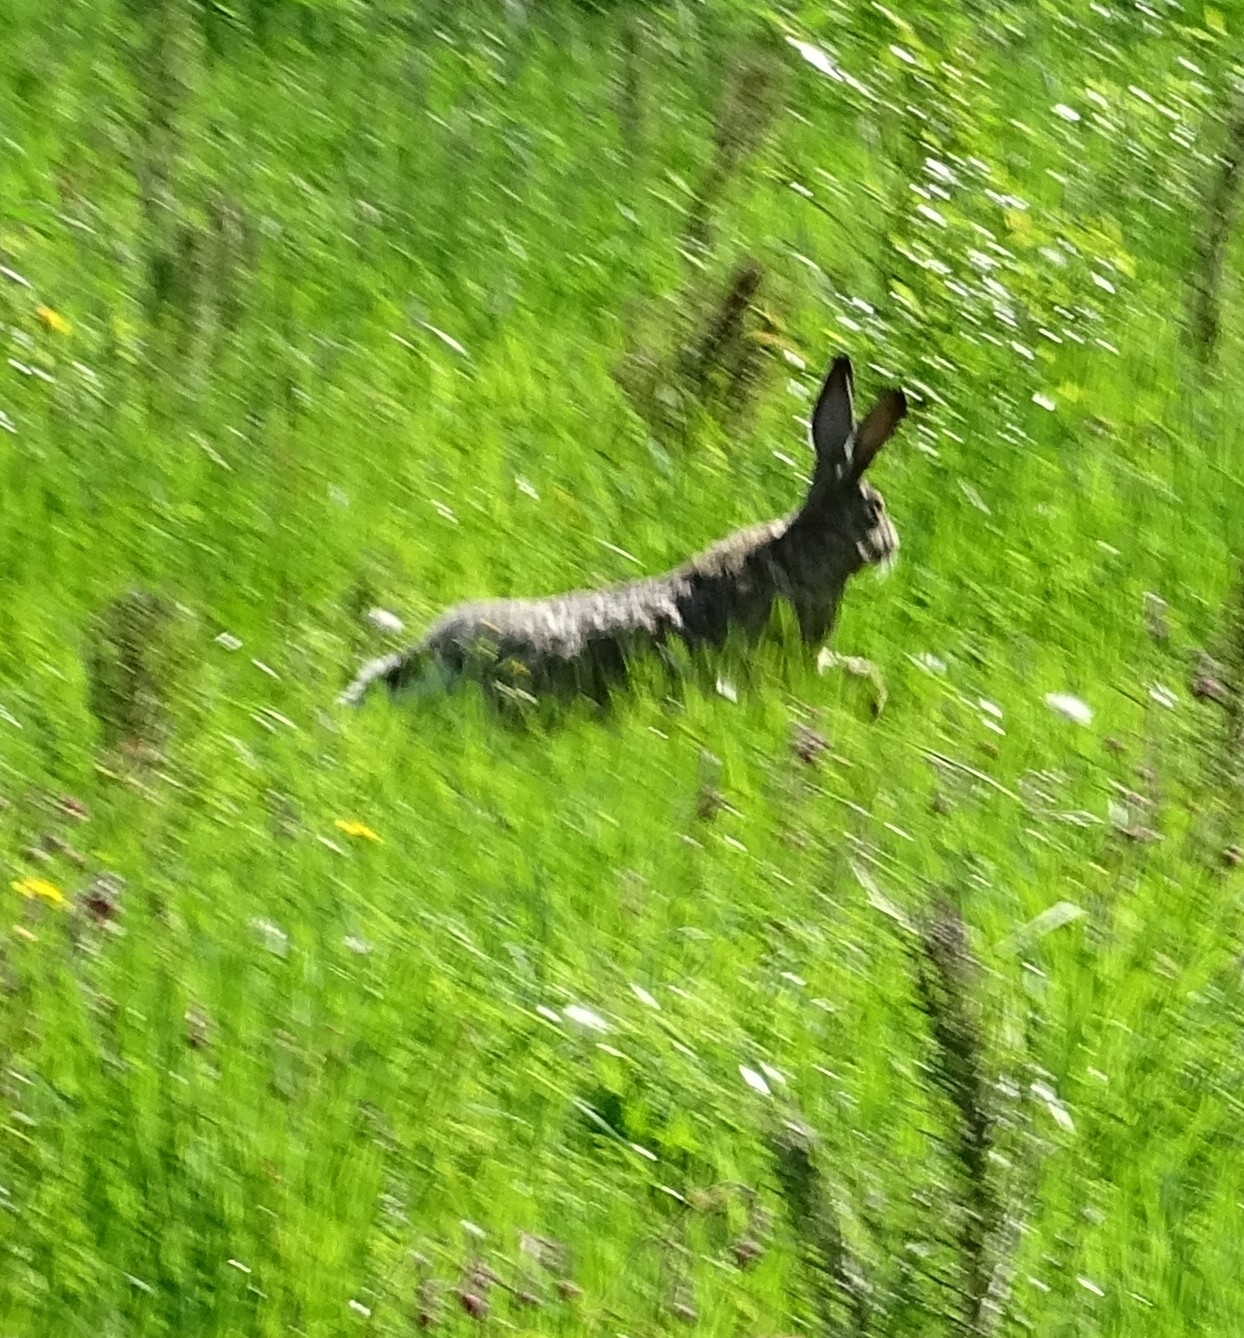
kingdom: Animalia
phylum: Chordata
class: Mammalia
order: Lagomorpha
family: Leporidae
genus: Lepus
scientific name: Lepus europaeus
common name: European hare
